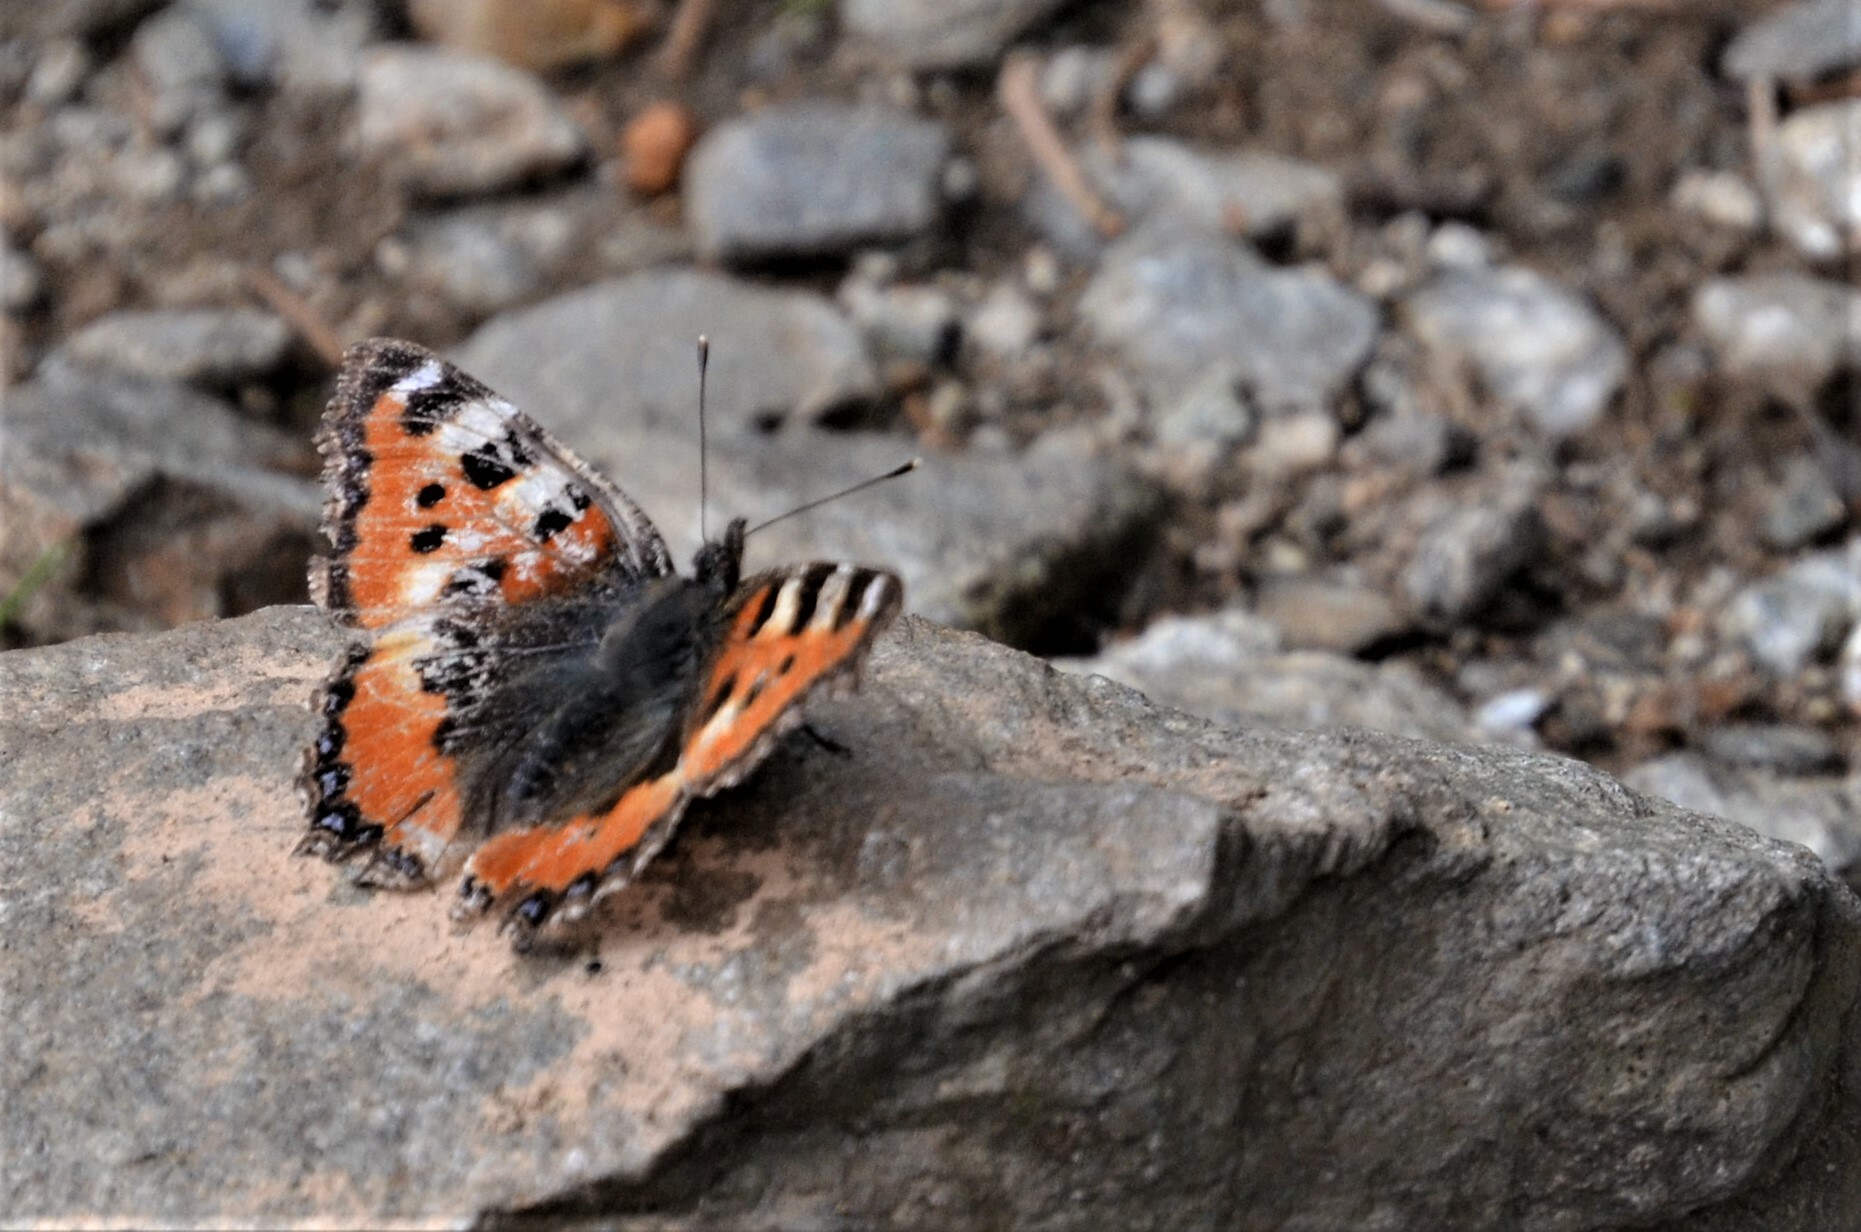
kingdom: Animalia
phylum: Arthropoda
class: Insecta
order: Lepidoptera
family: Nymphalidae
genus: Aglais
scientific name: Aglais urticae
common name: Small tortoiseshell
